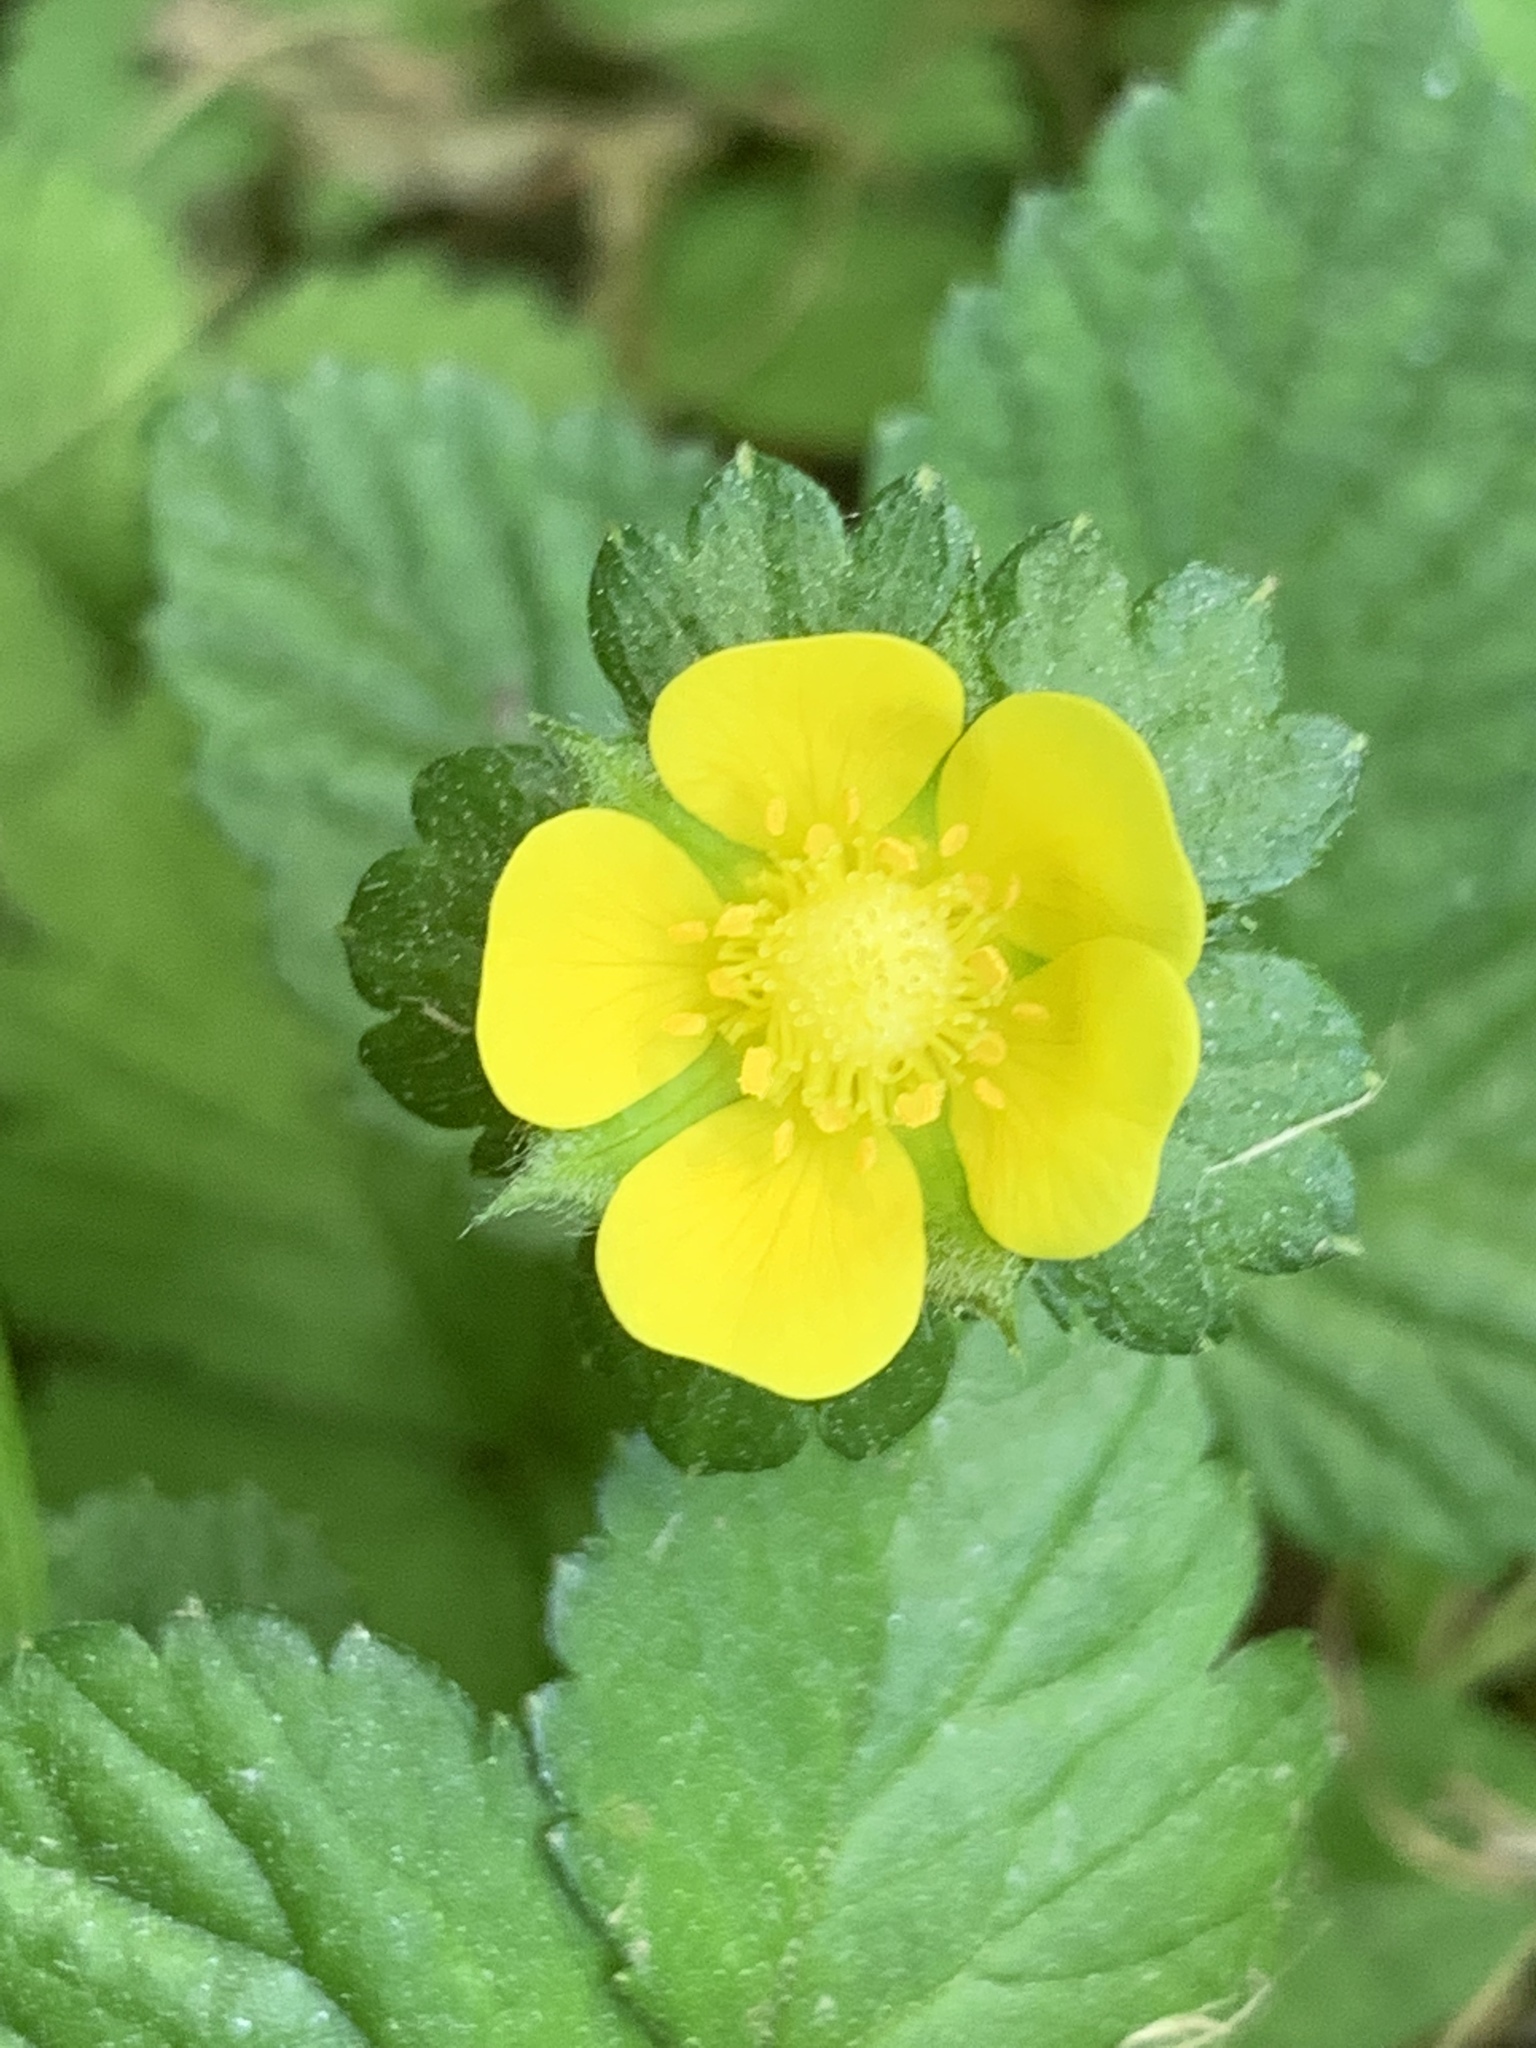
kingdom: Plantae
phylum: Tracheophyta
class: Magnoliopsida
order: Rosales
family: Rosaceae
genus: Potentilla
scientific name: Potentilla indica
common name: Yellow-flowered strawberry
